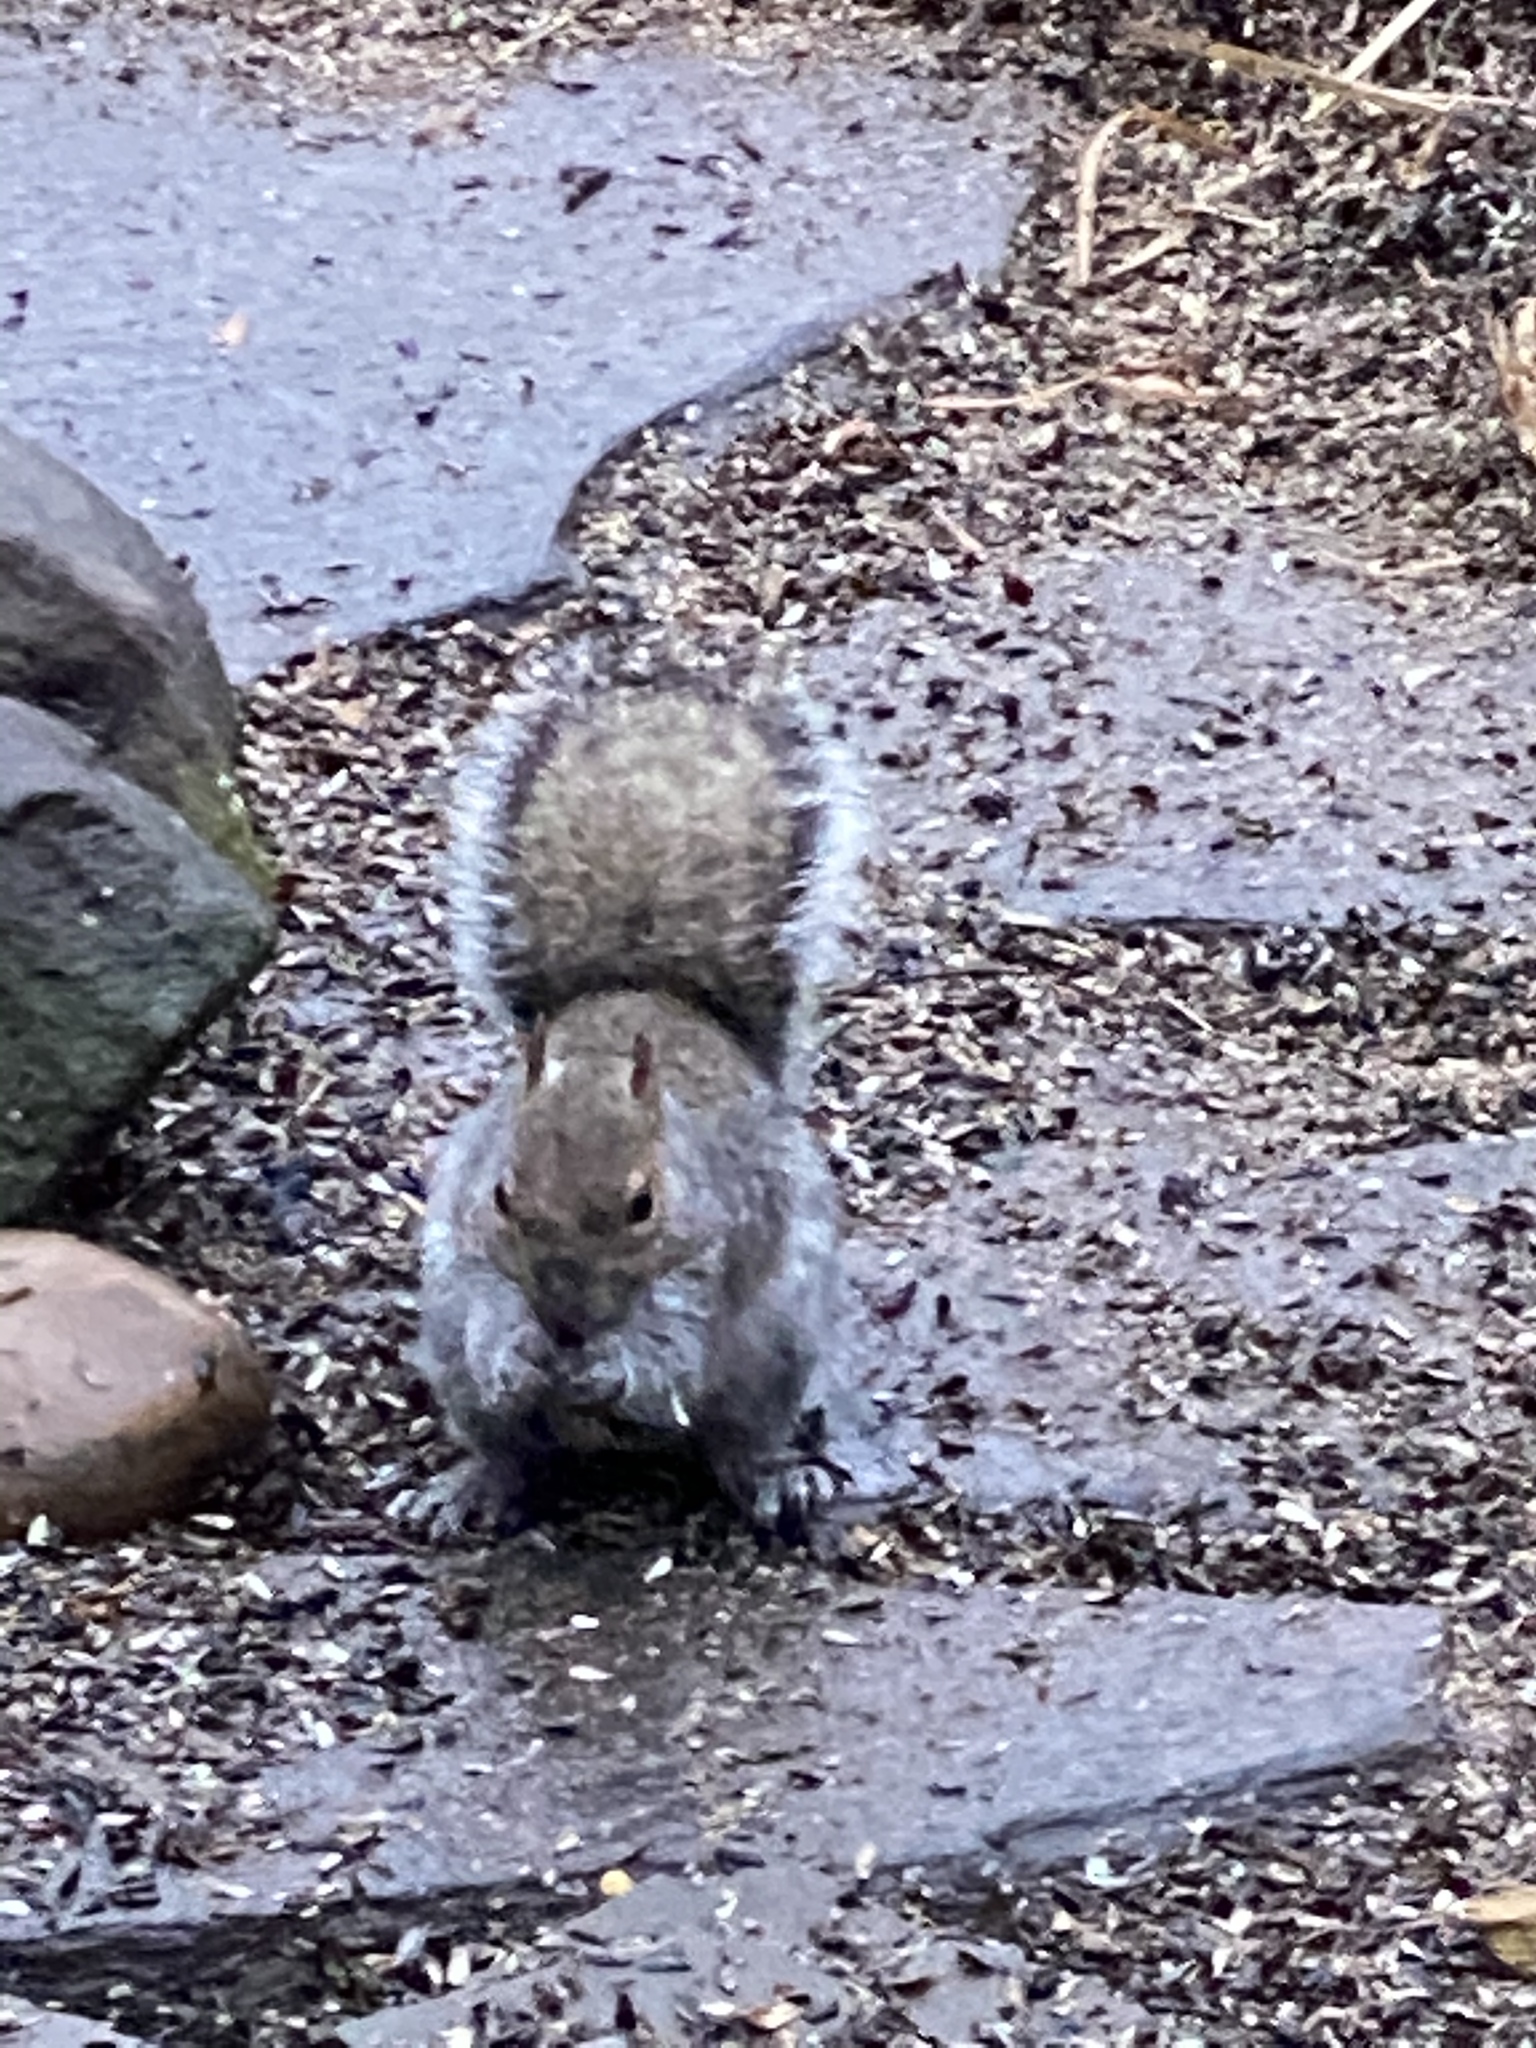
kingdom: Animalia
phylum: Chordata
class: Mammalia
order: Rodentia
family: Sciuridae
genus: Sciurus
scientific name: Sciurus carolinensis
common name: Eastern gray squirrel
